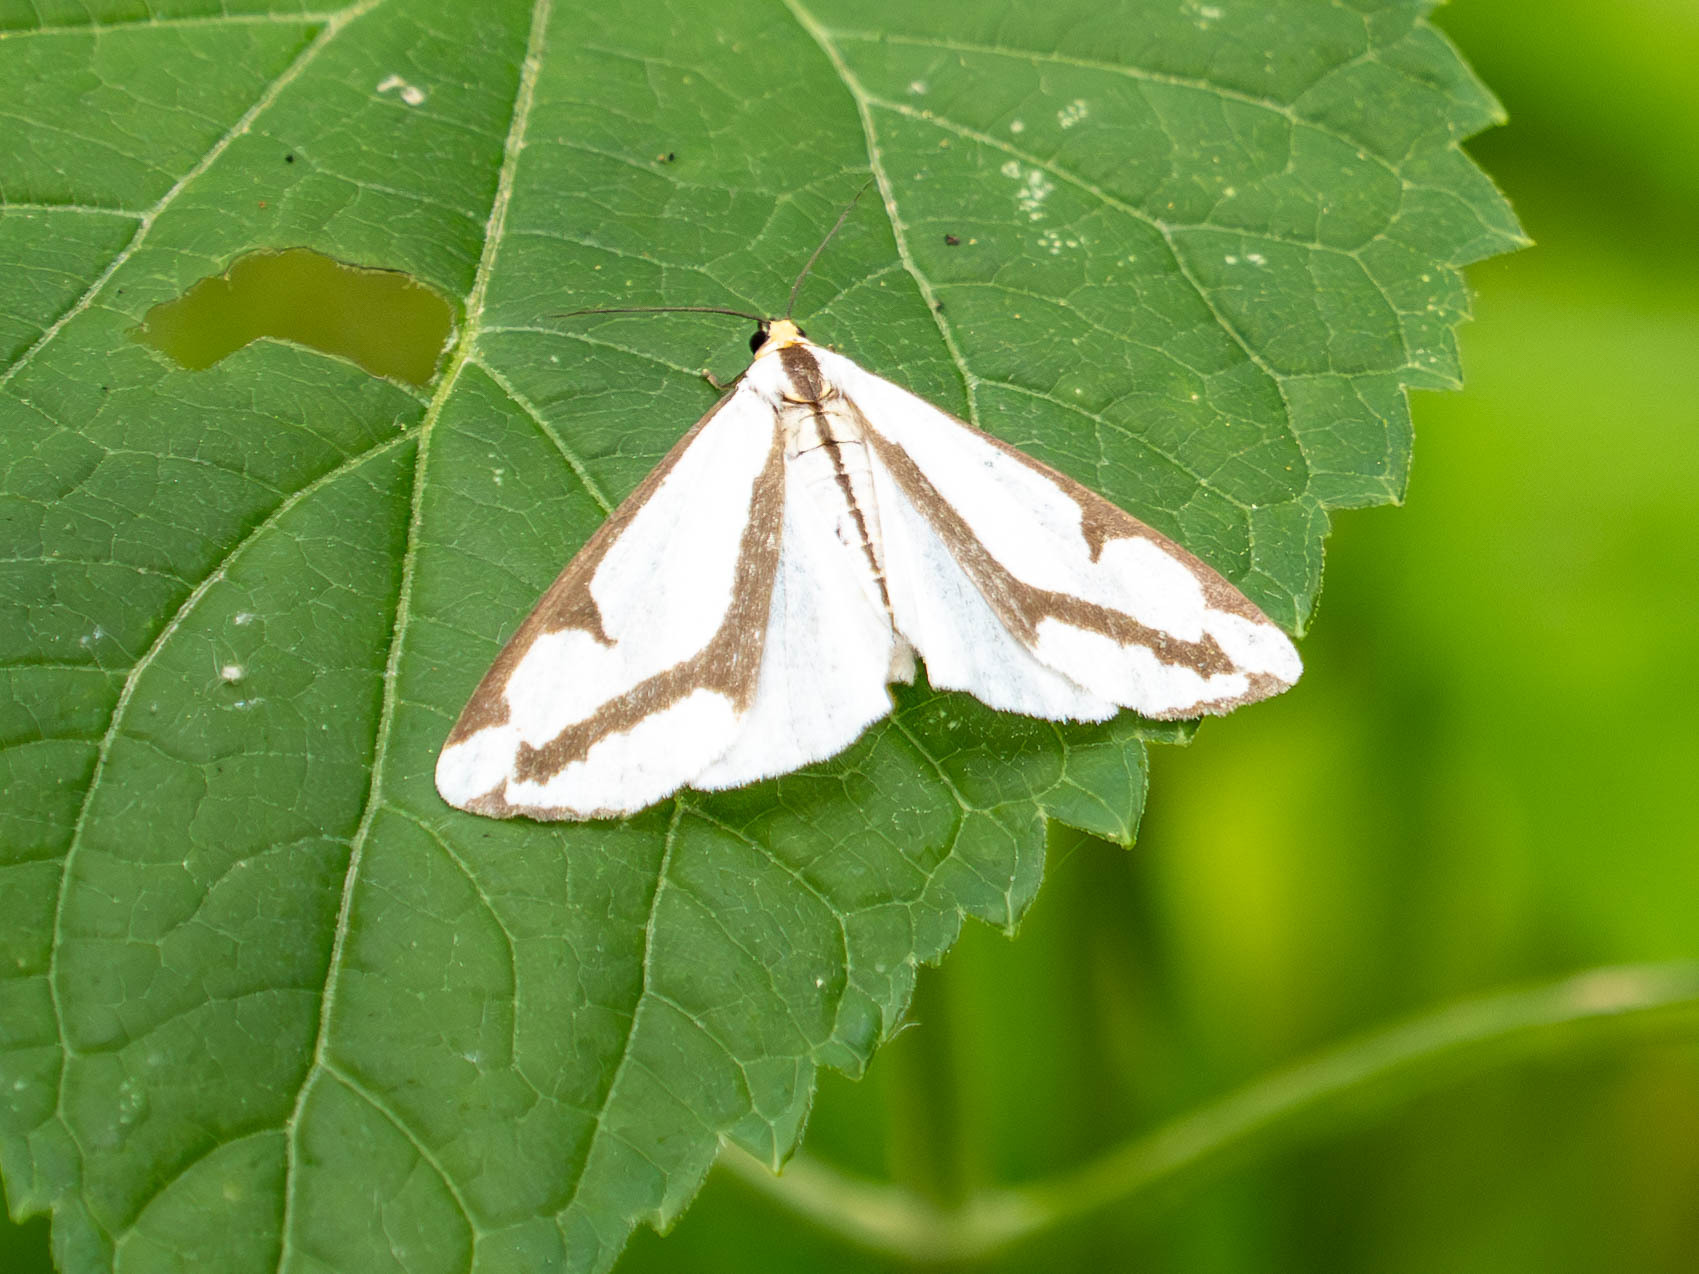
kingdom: Animalia
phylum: Arthropoda
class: Insecta
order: Lepidoptera
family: Erebidae
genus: Haploa
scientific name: Haploa lecontei
